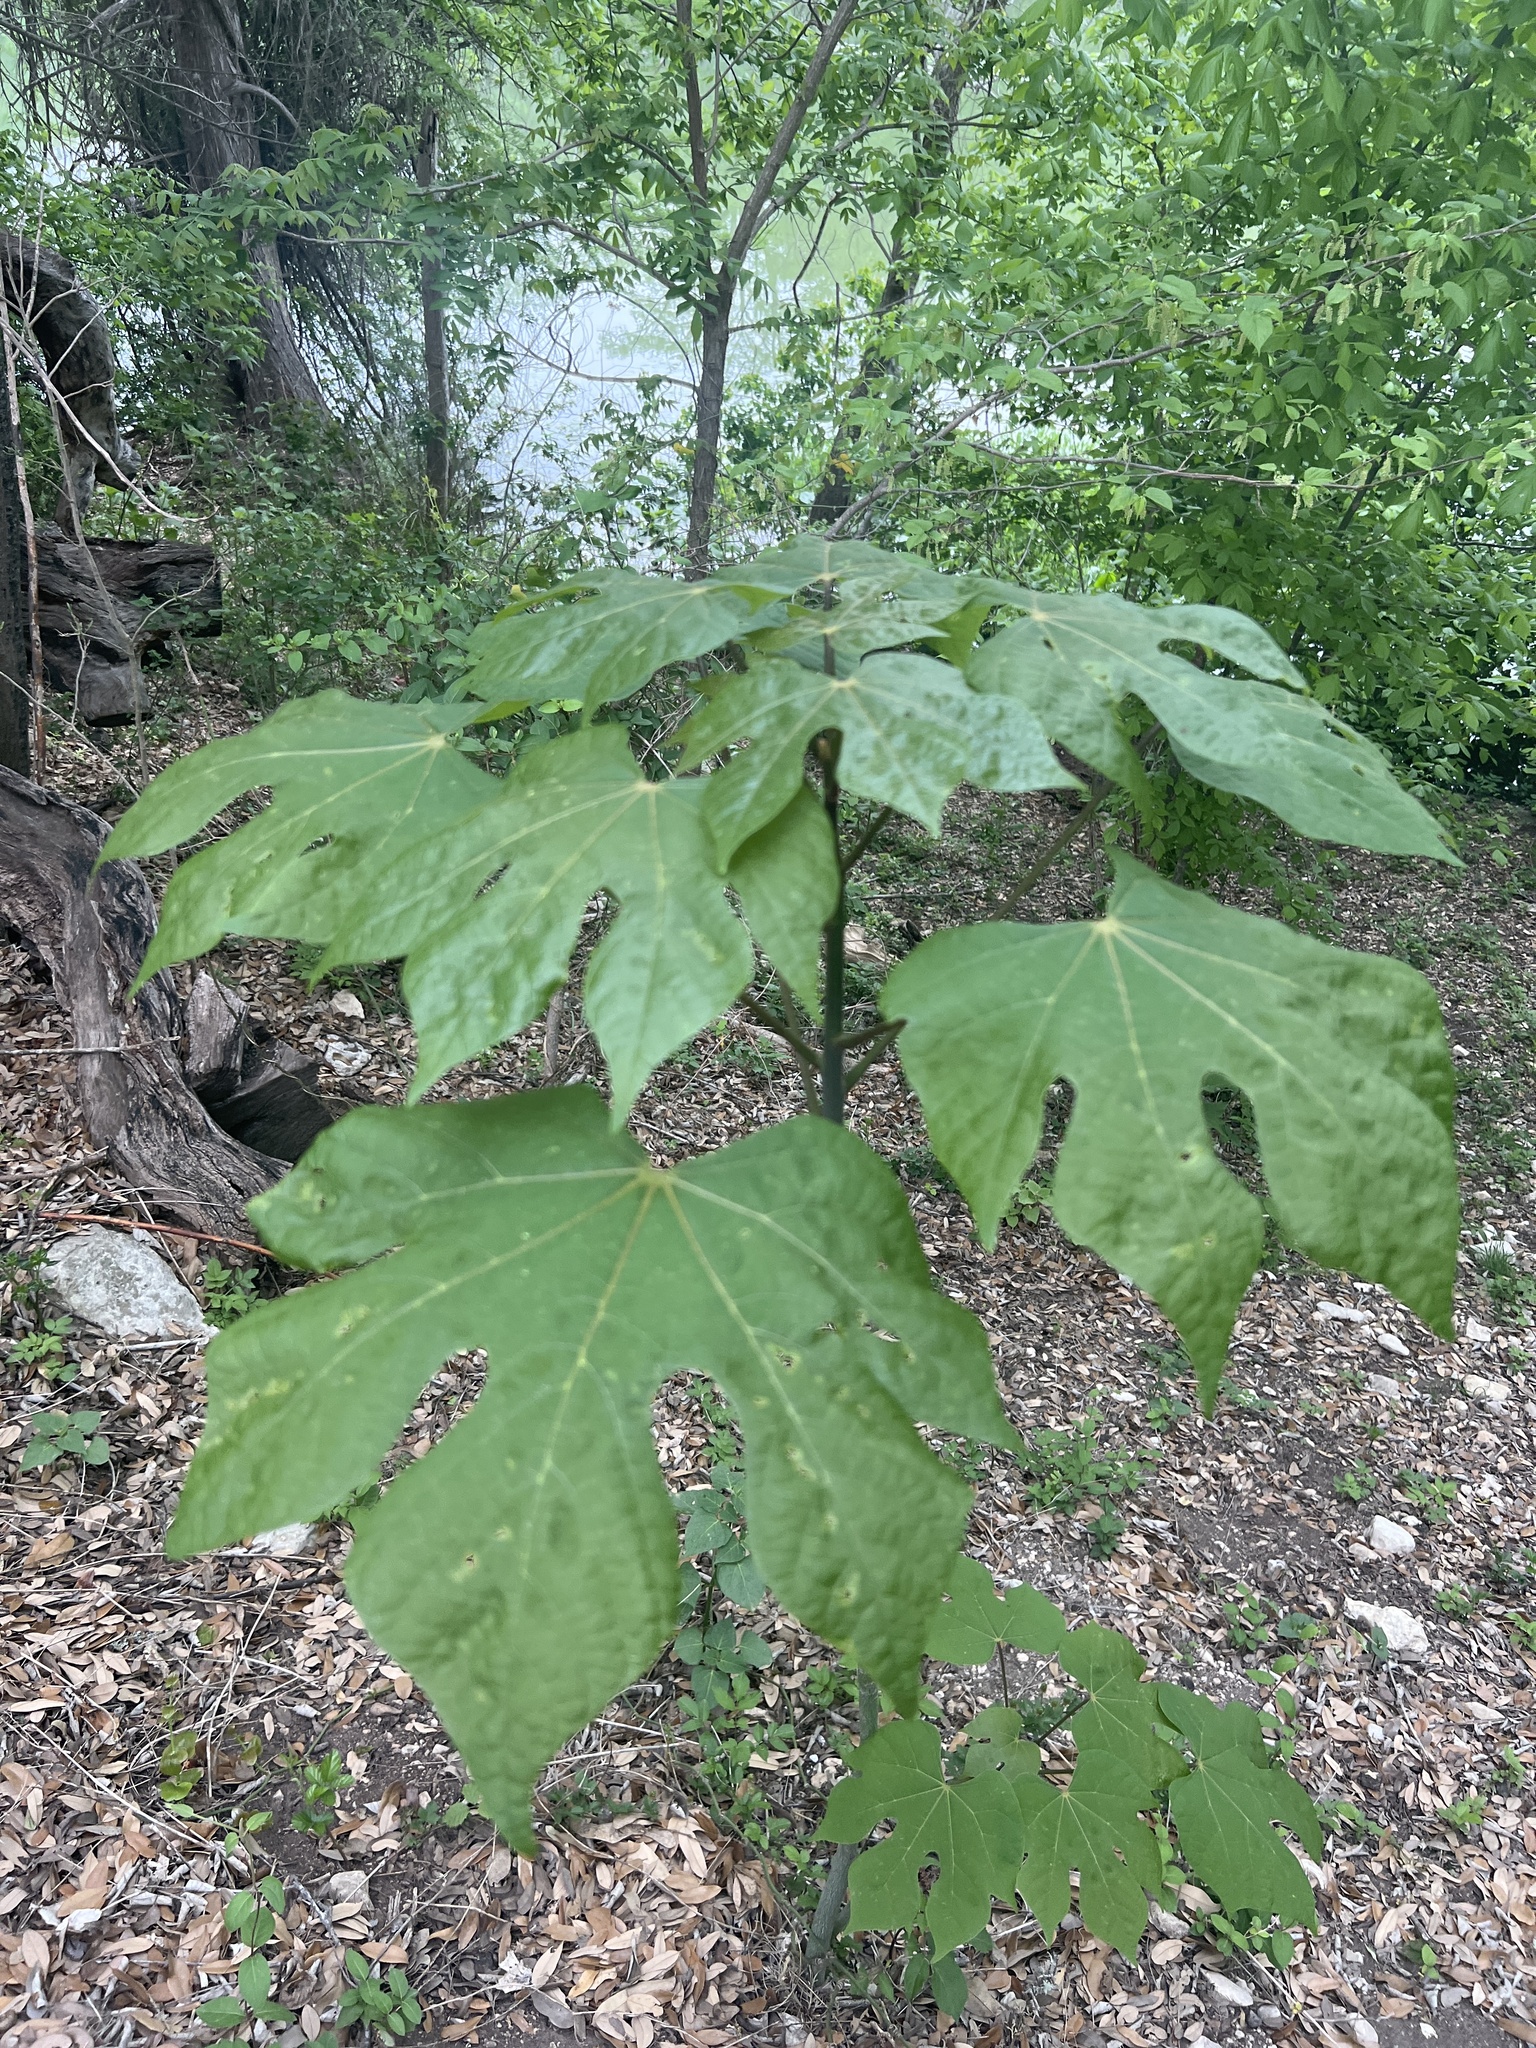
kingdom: Plantae
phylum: Tracheophyta
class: Magnoliopsida
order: Malvales
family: Malvaceae
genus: Firmiana
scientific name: Firmiana simplex
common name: Chinese parasoltree
